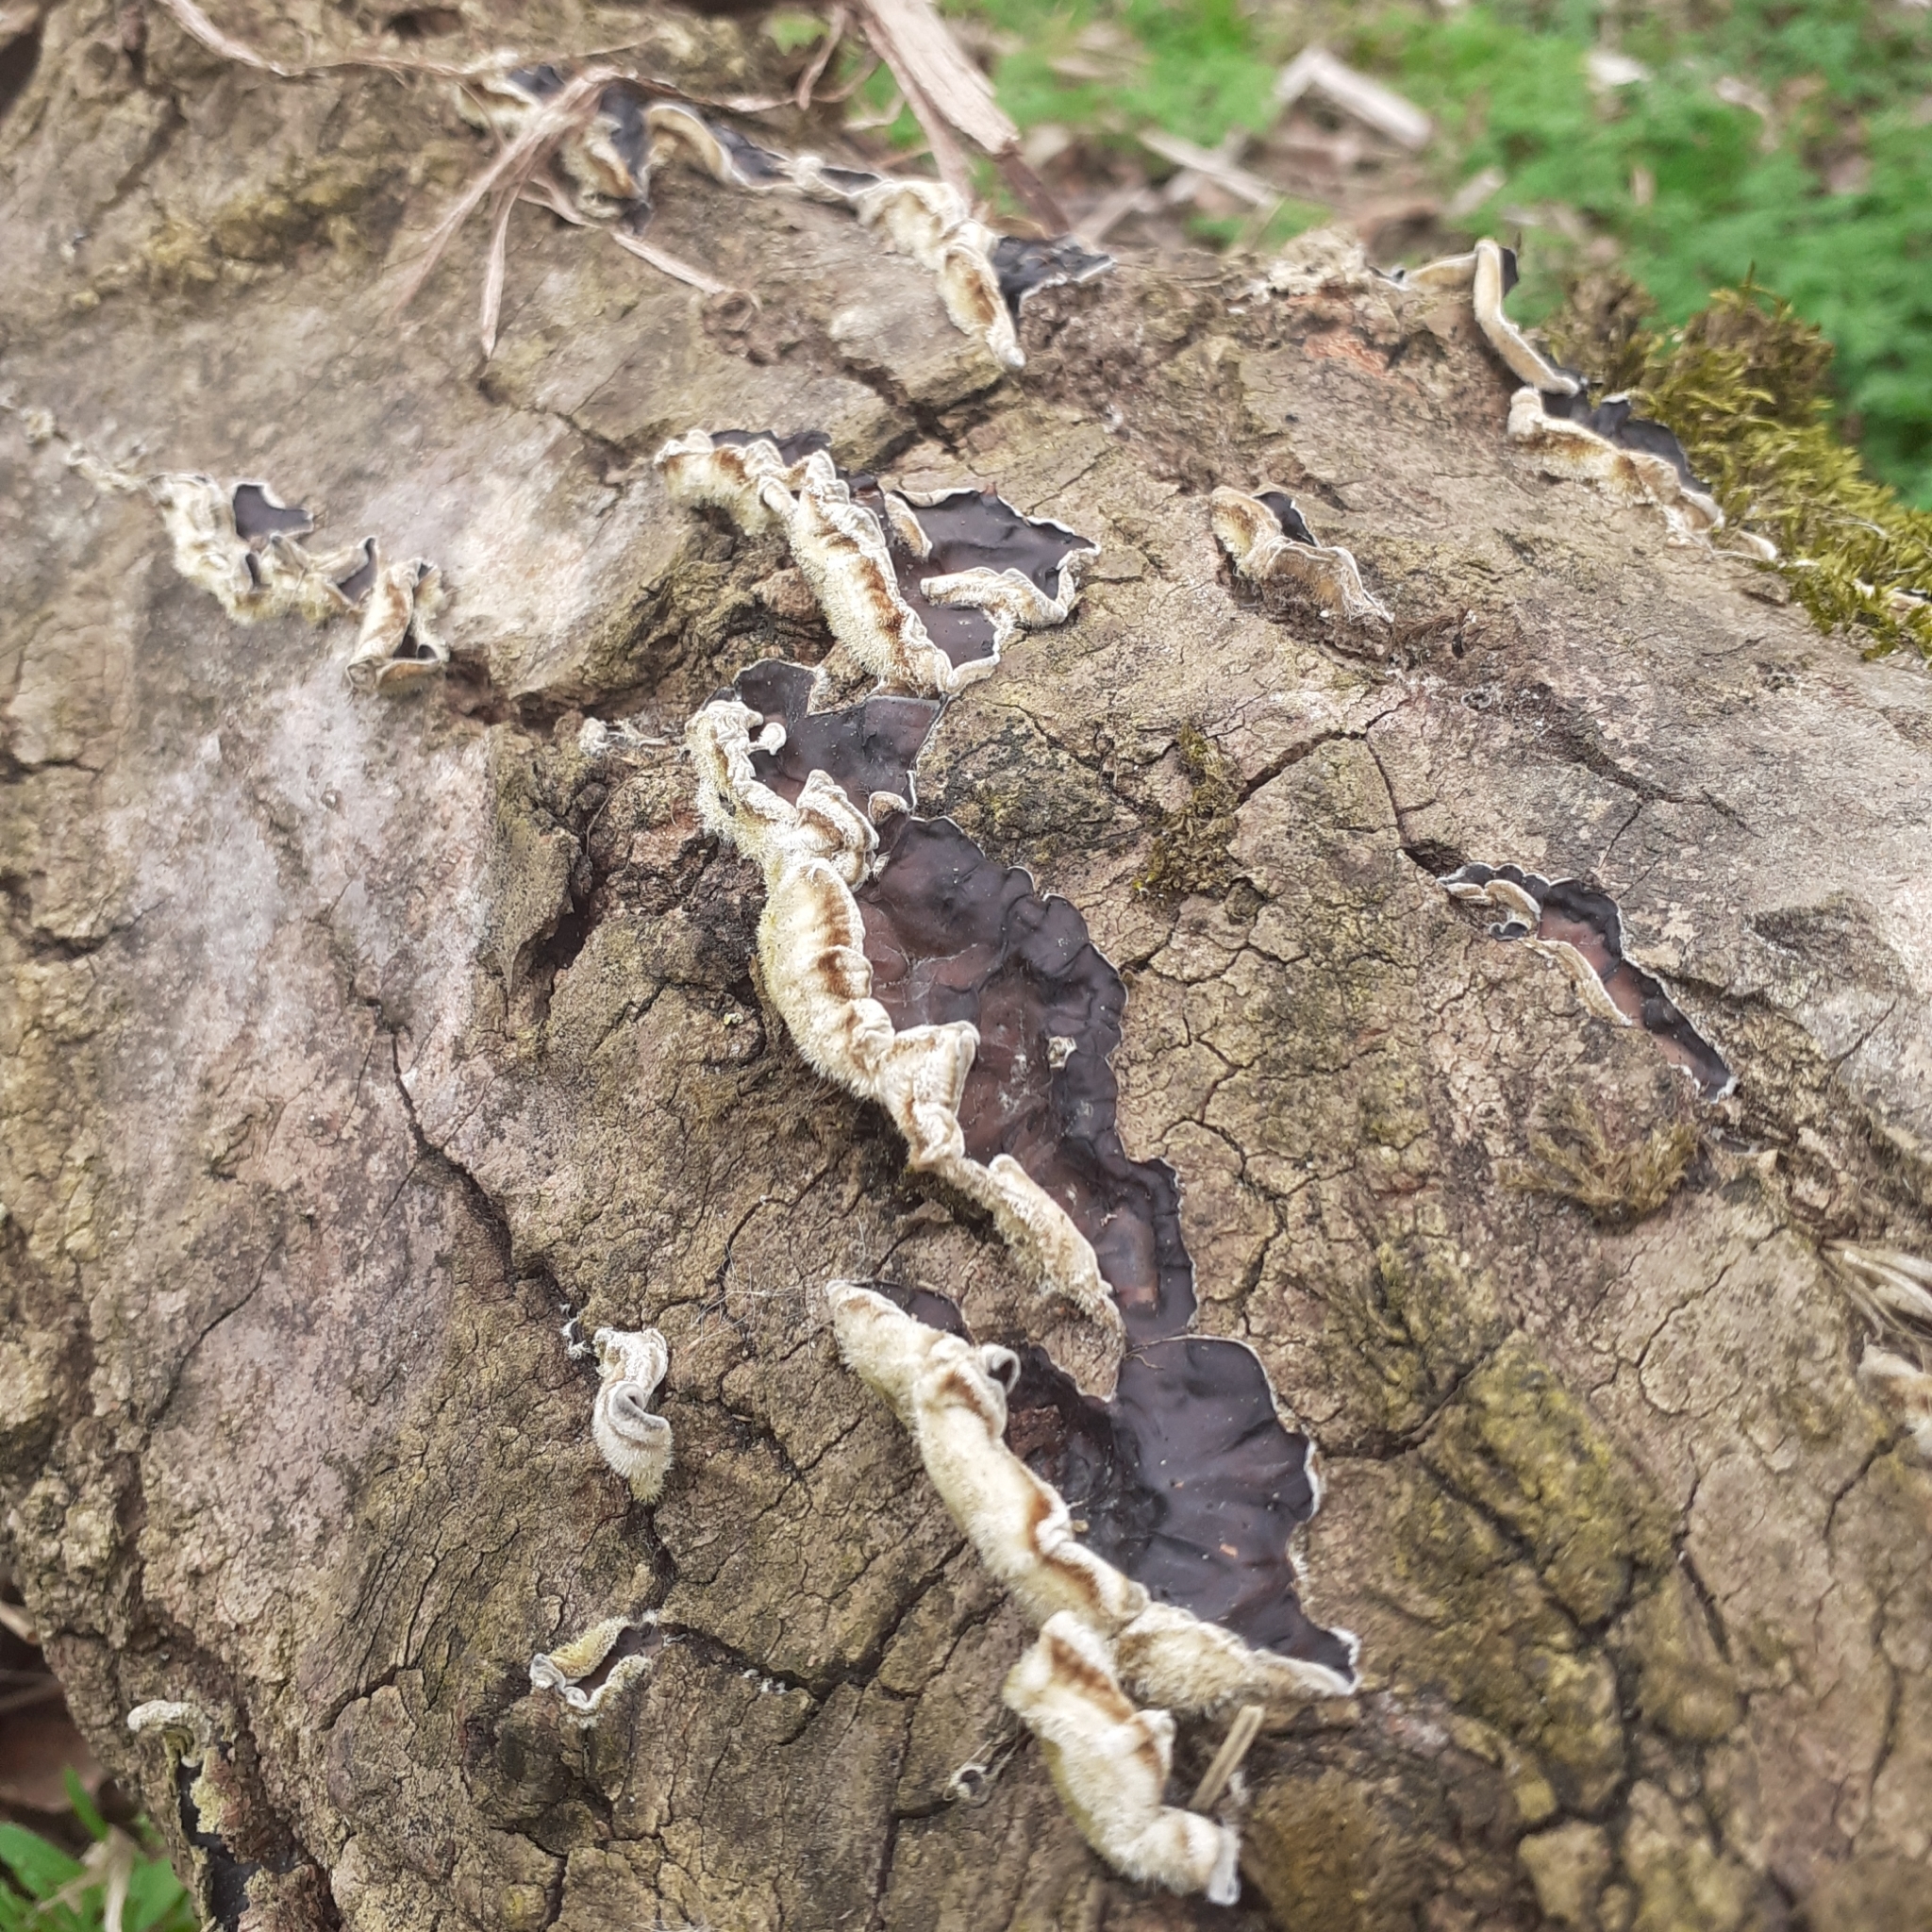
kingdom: Fungi
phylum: Basidiomycota
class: Agaricomycetes
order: Auriculariales
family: Auriculariaceae
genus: Auricularia
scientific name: Auricularia mesenterica
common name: Tripe fungus
